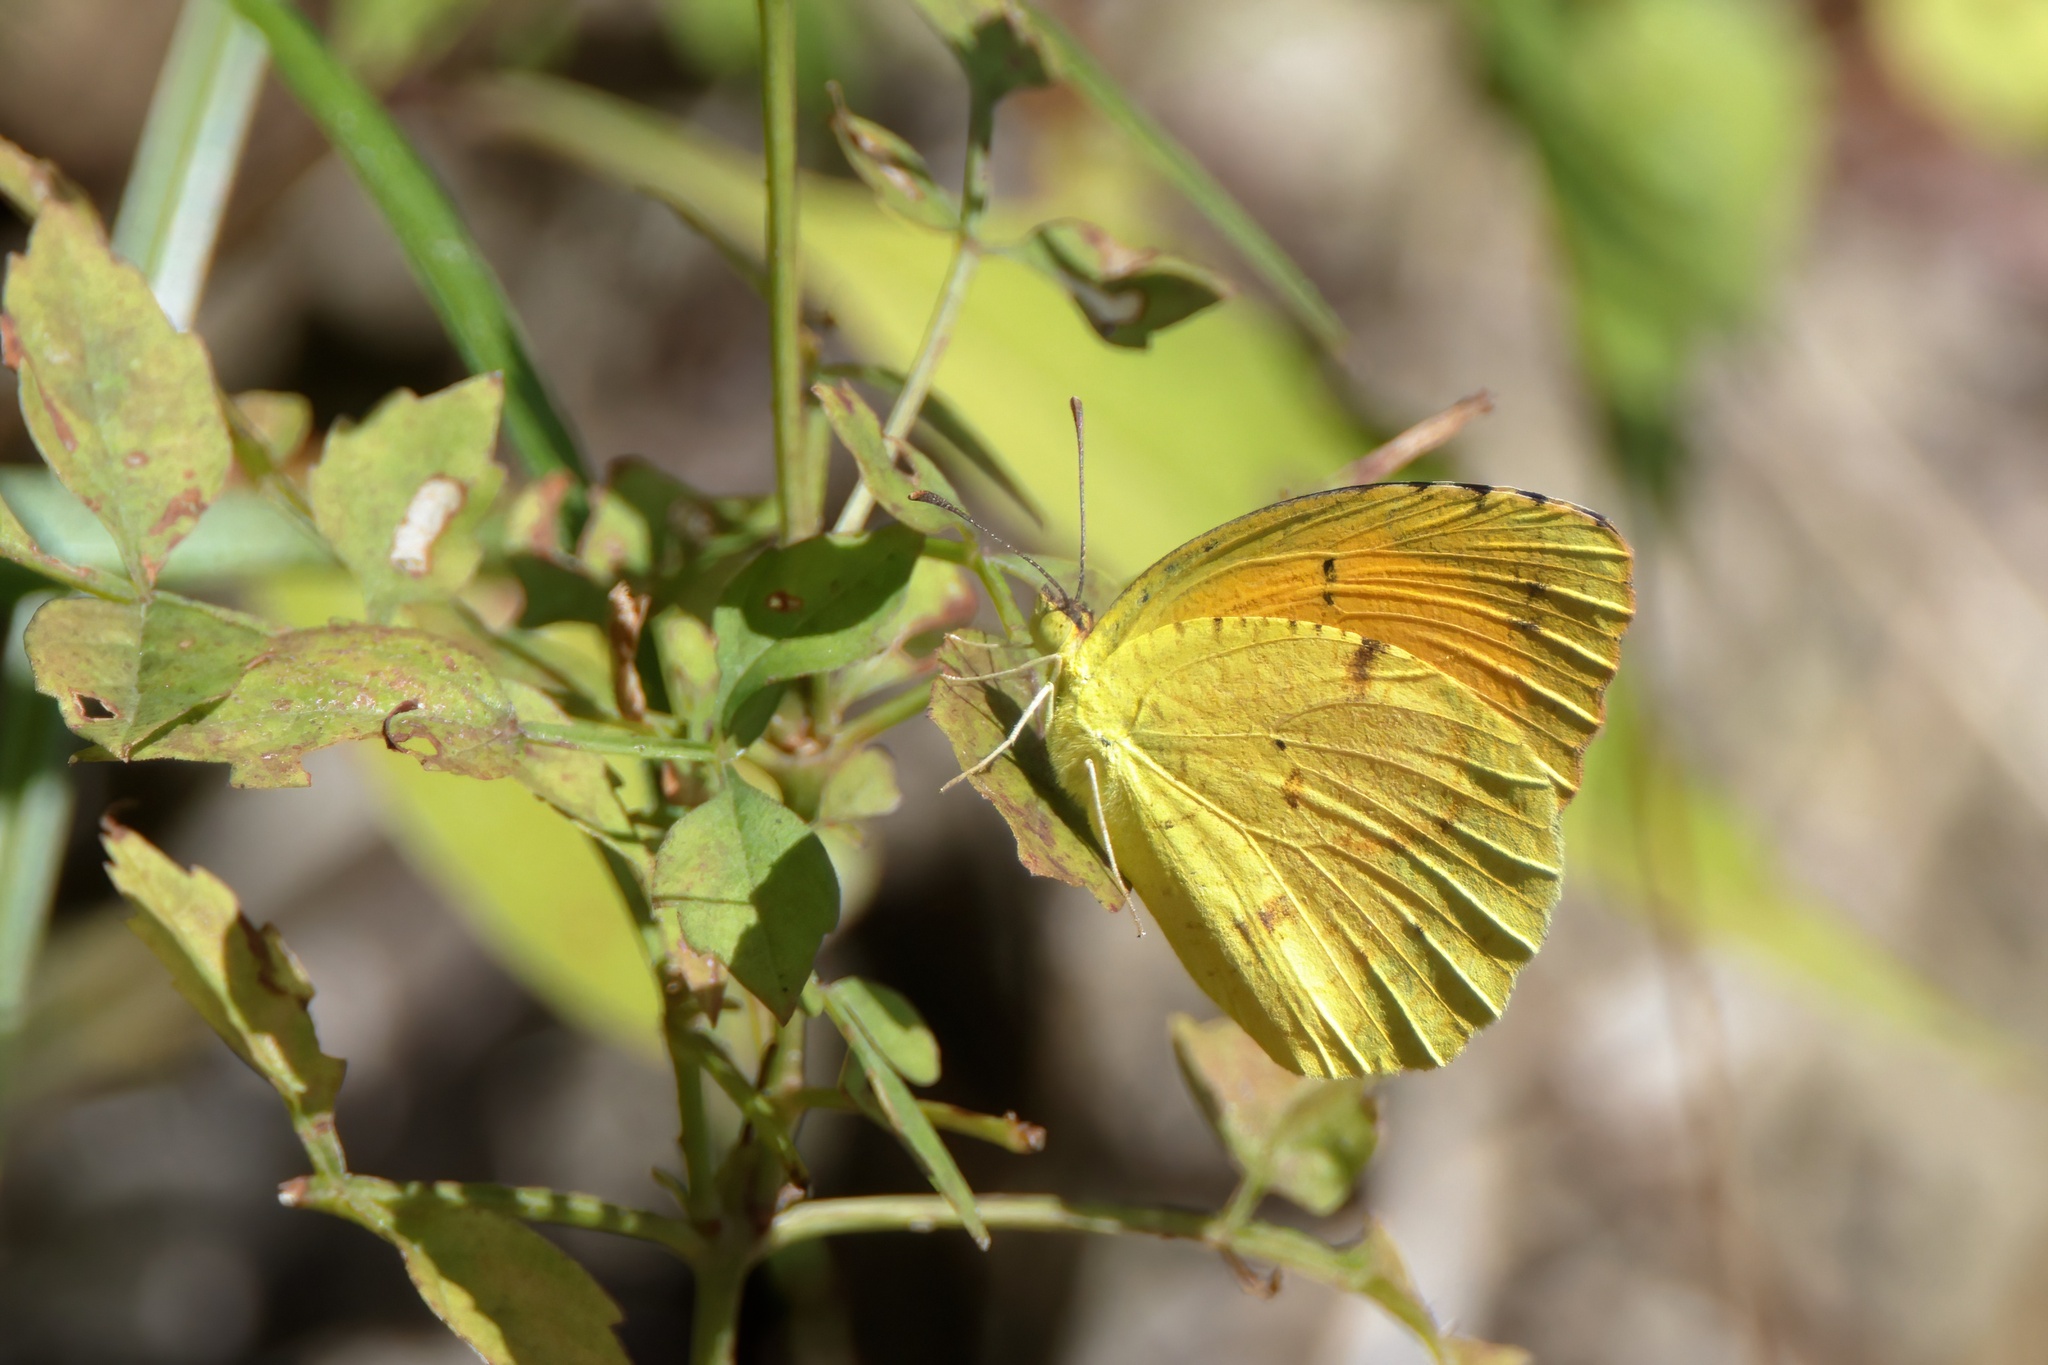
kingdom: Animalia
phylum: Arthropoda
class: Insecta
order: Lepidoptera
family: Pieridae
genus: Abaeis
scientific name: Abaeis nicippe
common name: Sleepy orange
